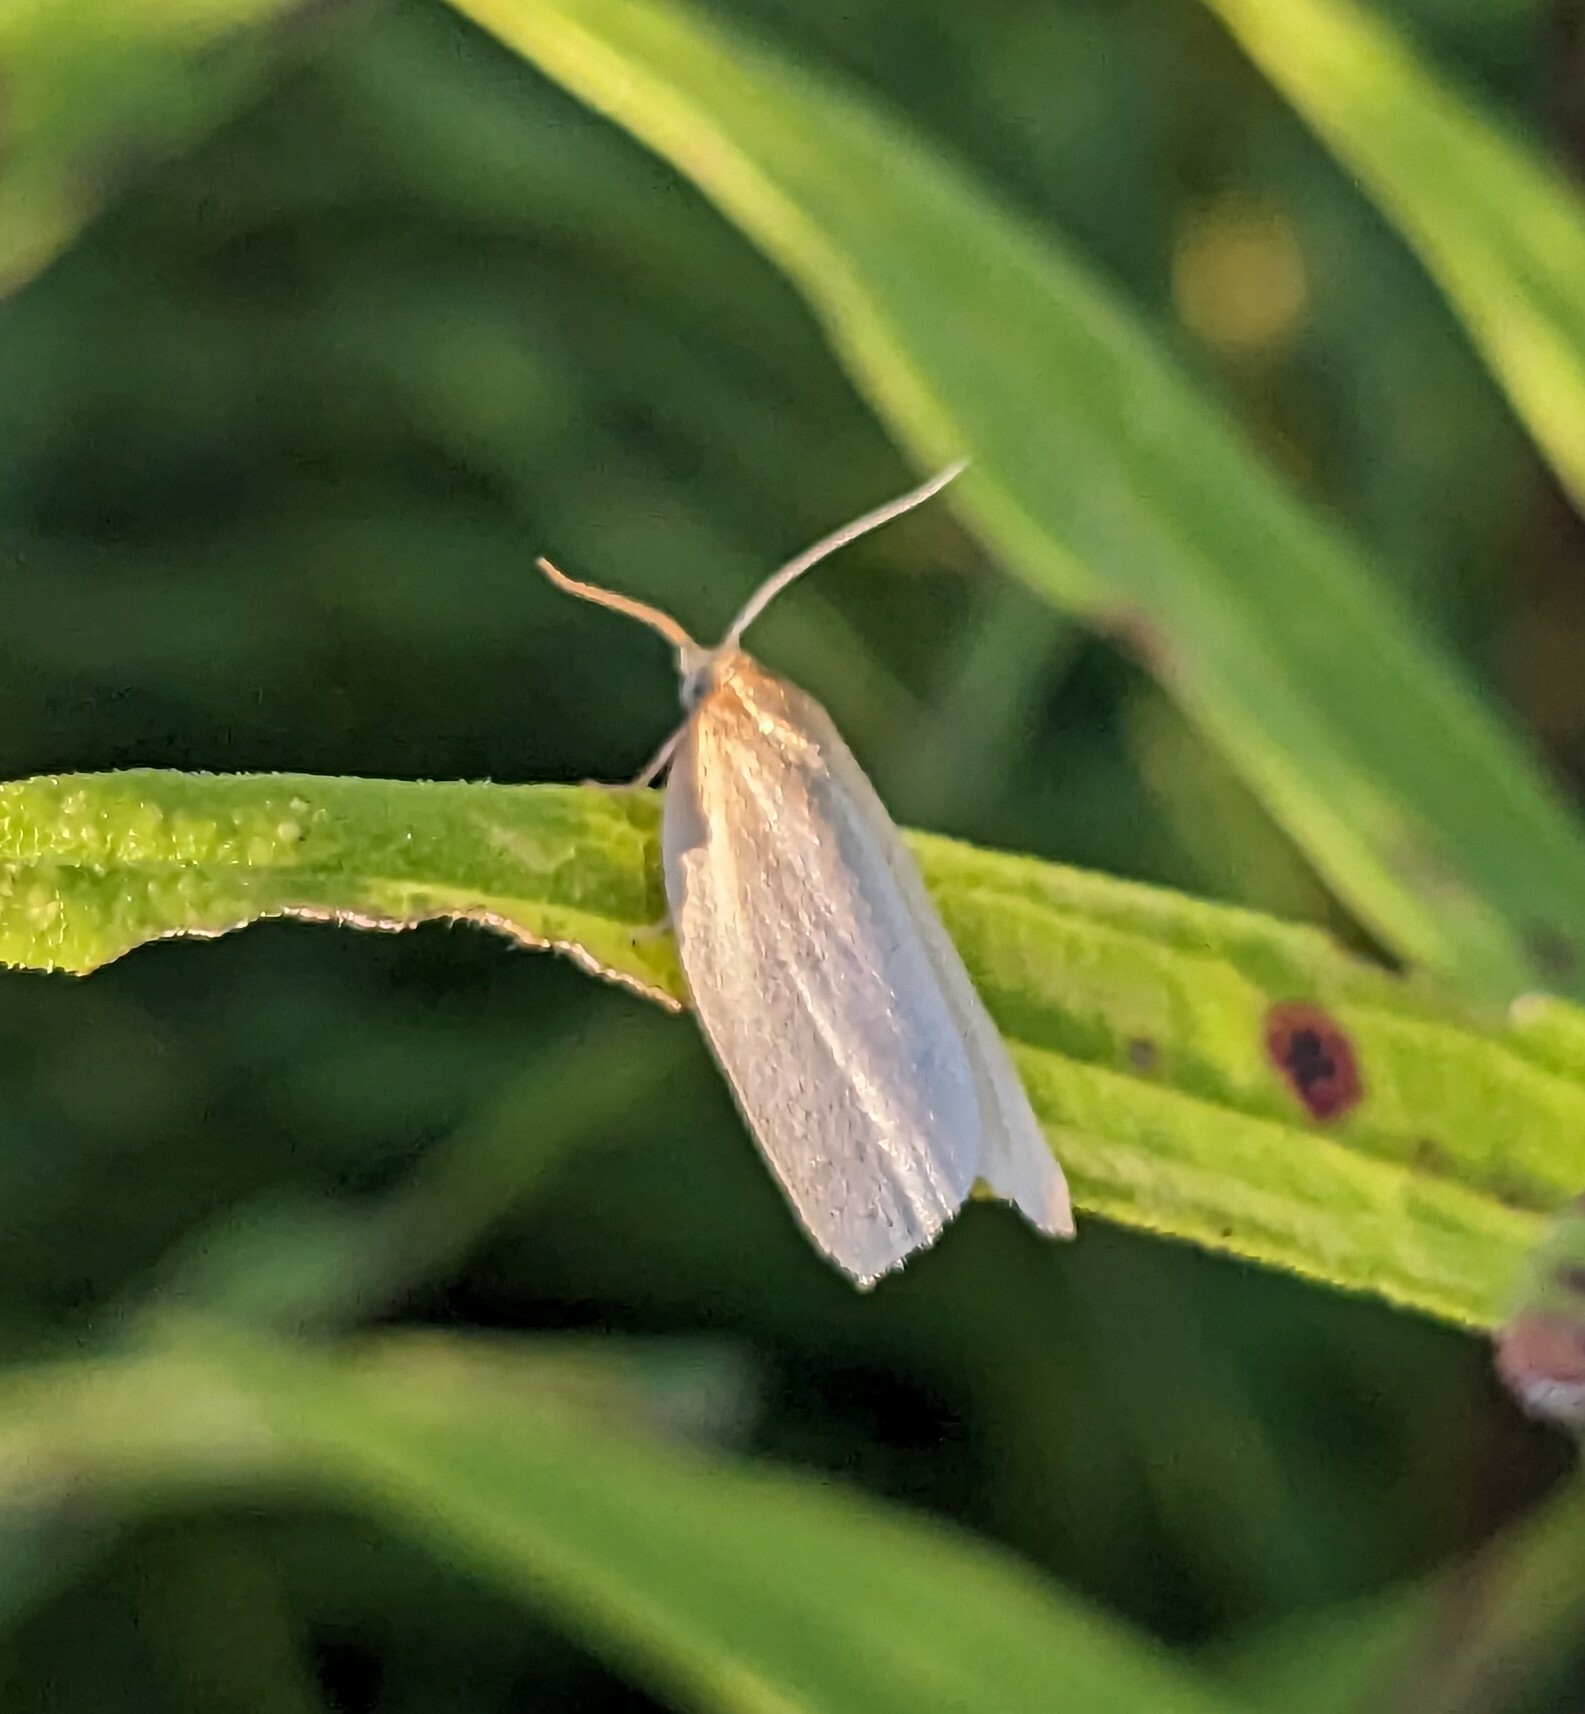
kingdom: Animalia
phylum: Arthropoda
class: Insecta
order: Lepidoptera
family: Tortricidae
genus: Xenotemna
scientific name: Xenotemna pallorana
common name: Pallid leafroller moth
